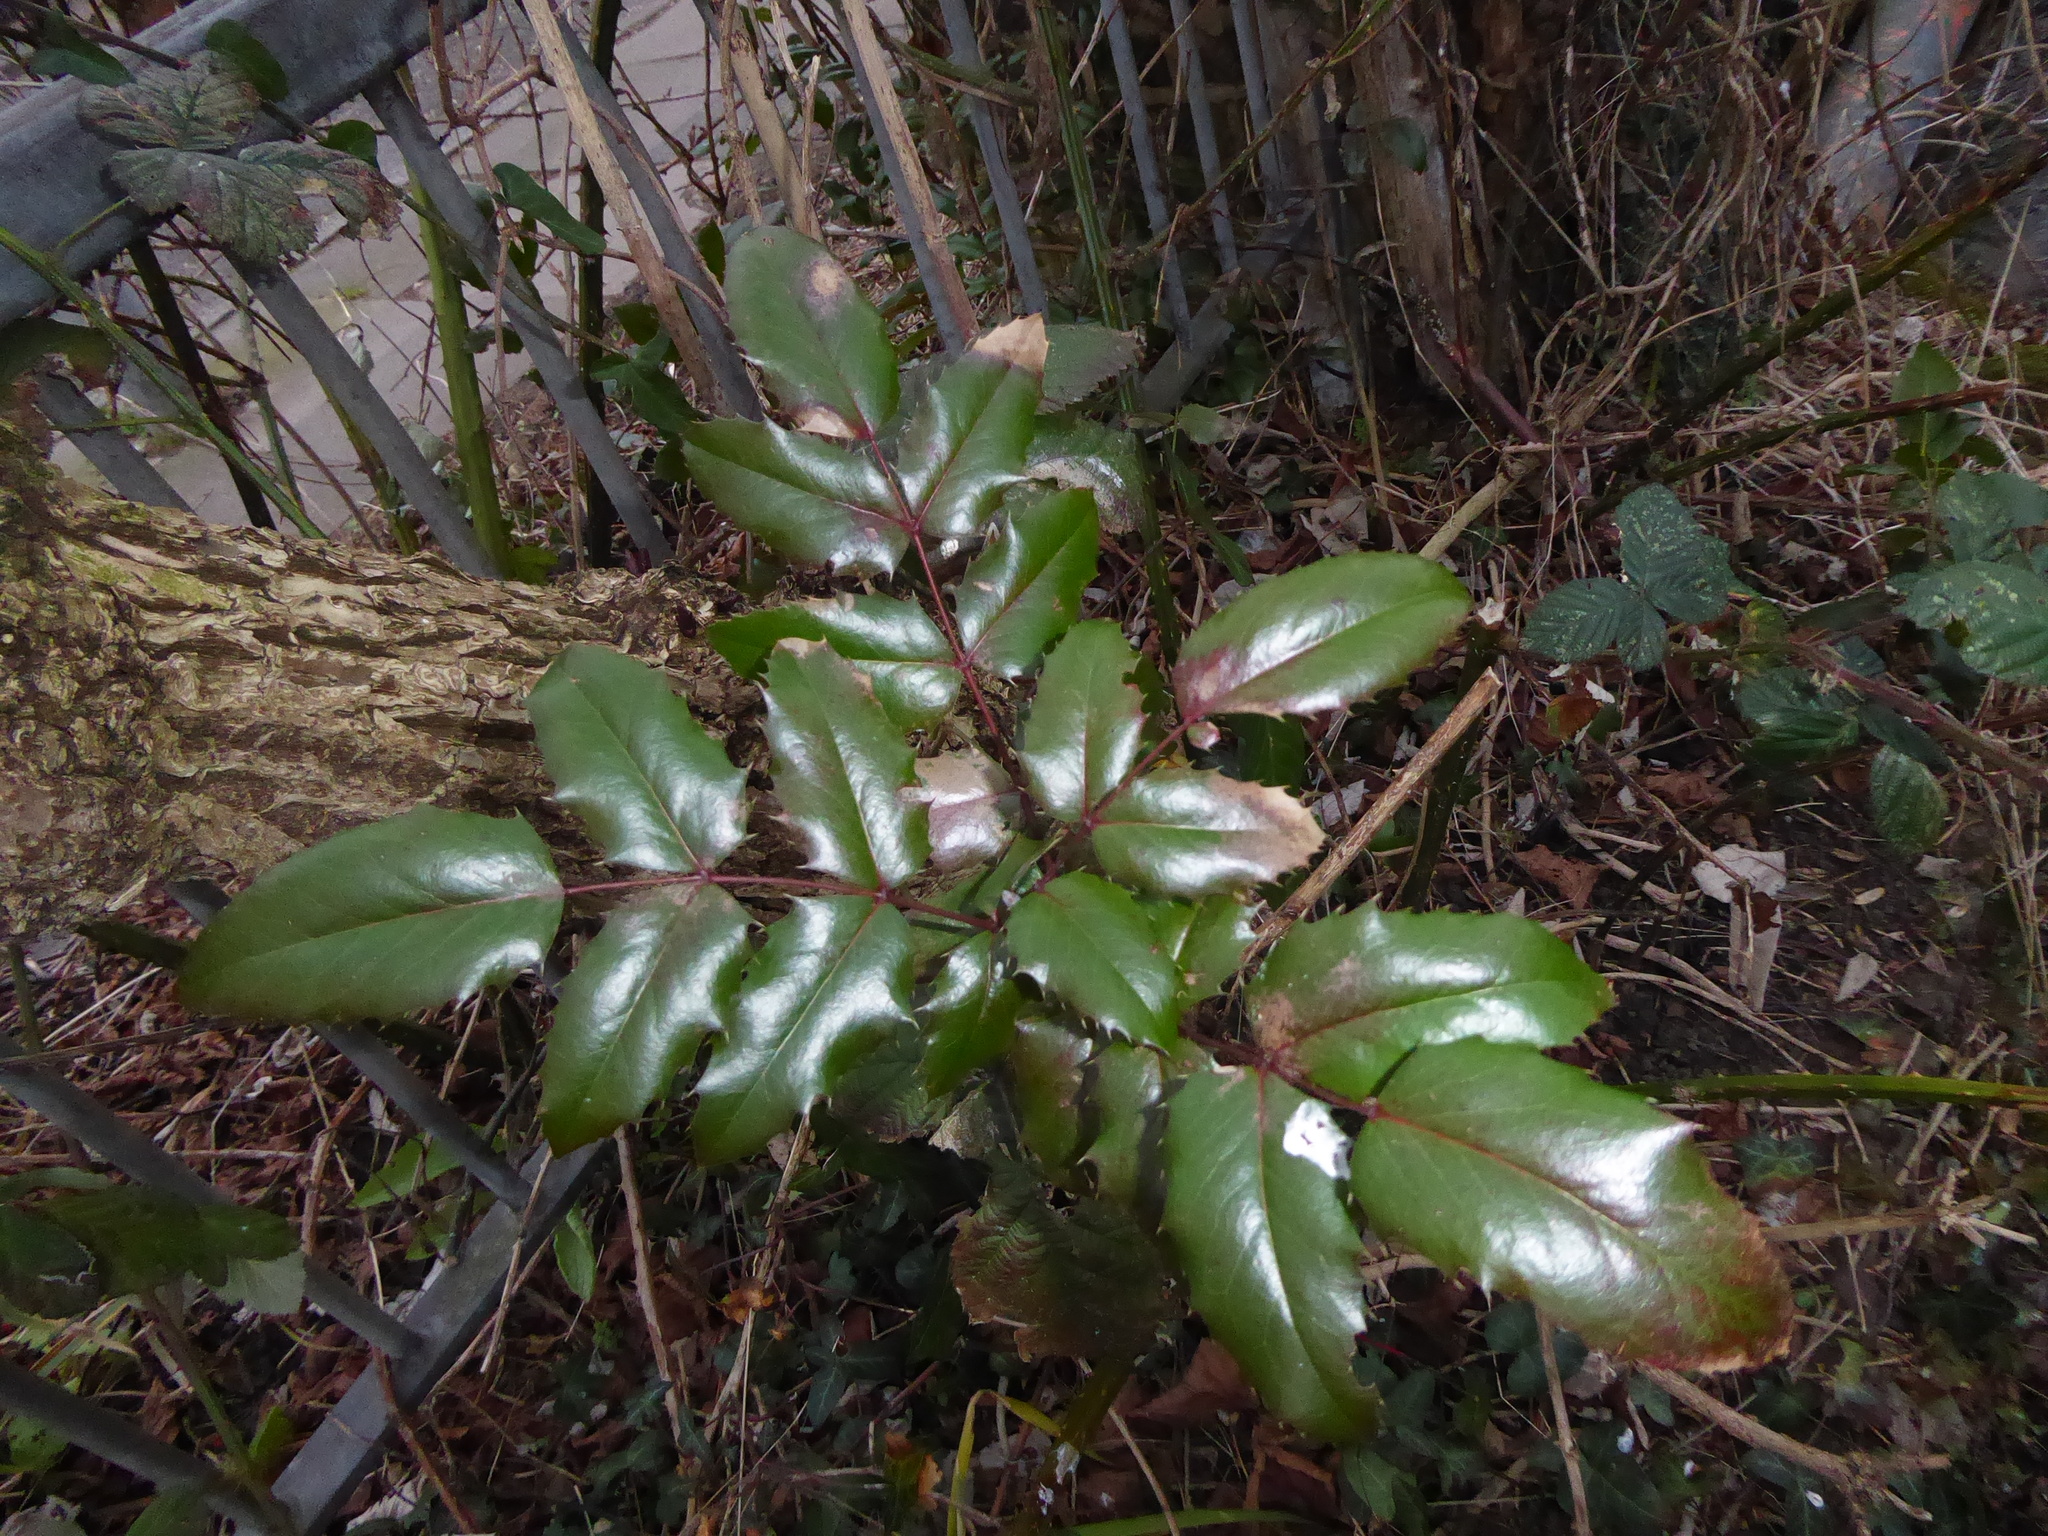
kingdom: Plantae
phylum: Tracheophyta
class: Magnoliopsida
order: Ranunculales
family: Berberidaceae
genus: Mahonia
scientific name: Mahonia aquifolium
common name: Oregon-grape
